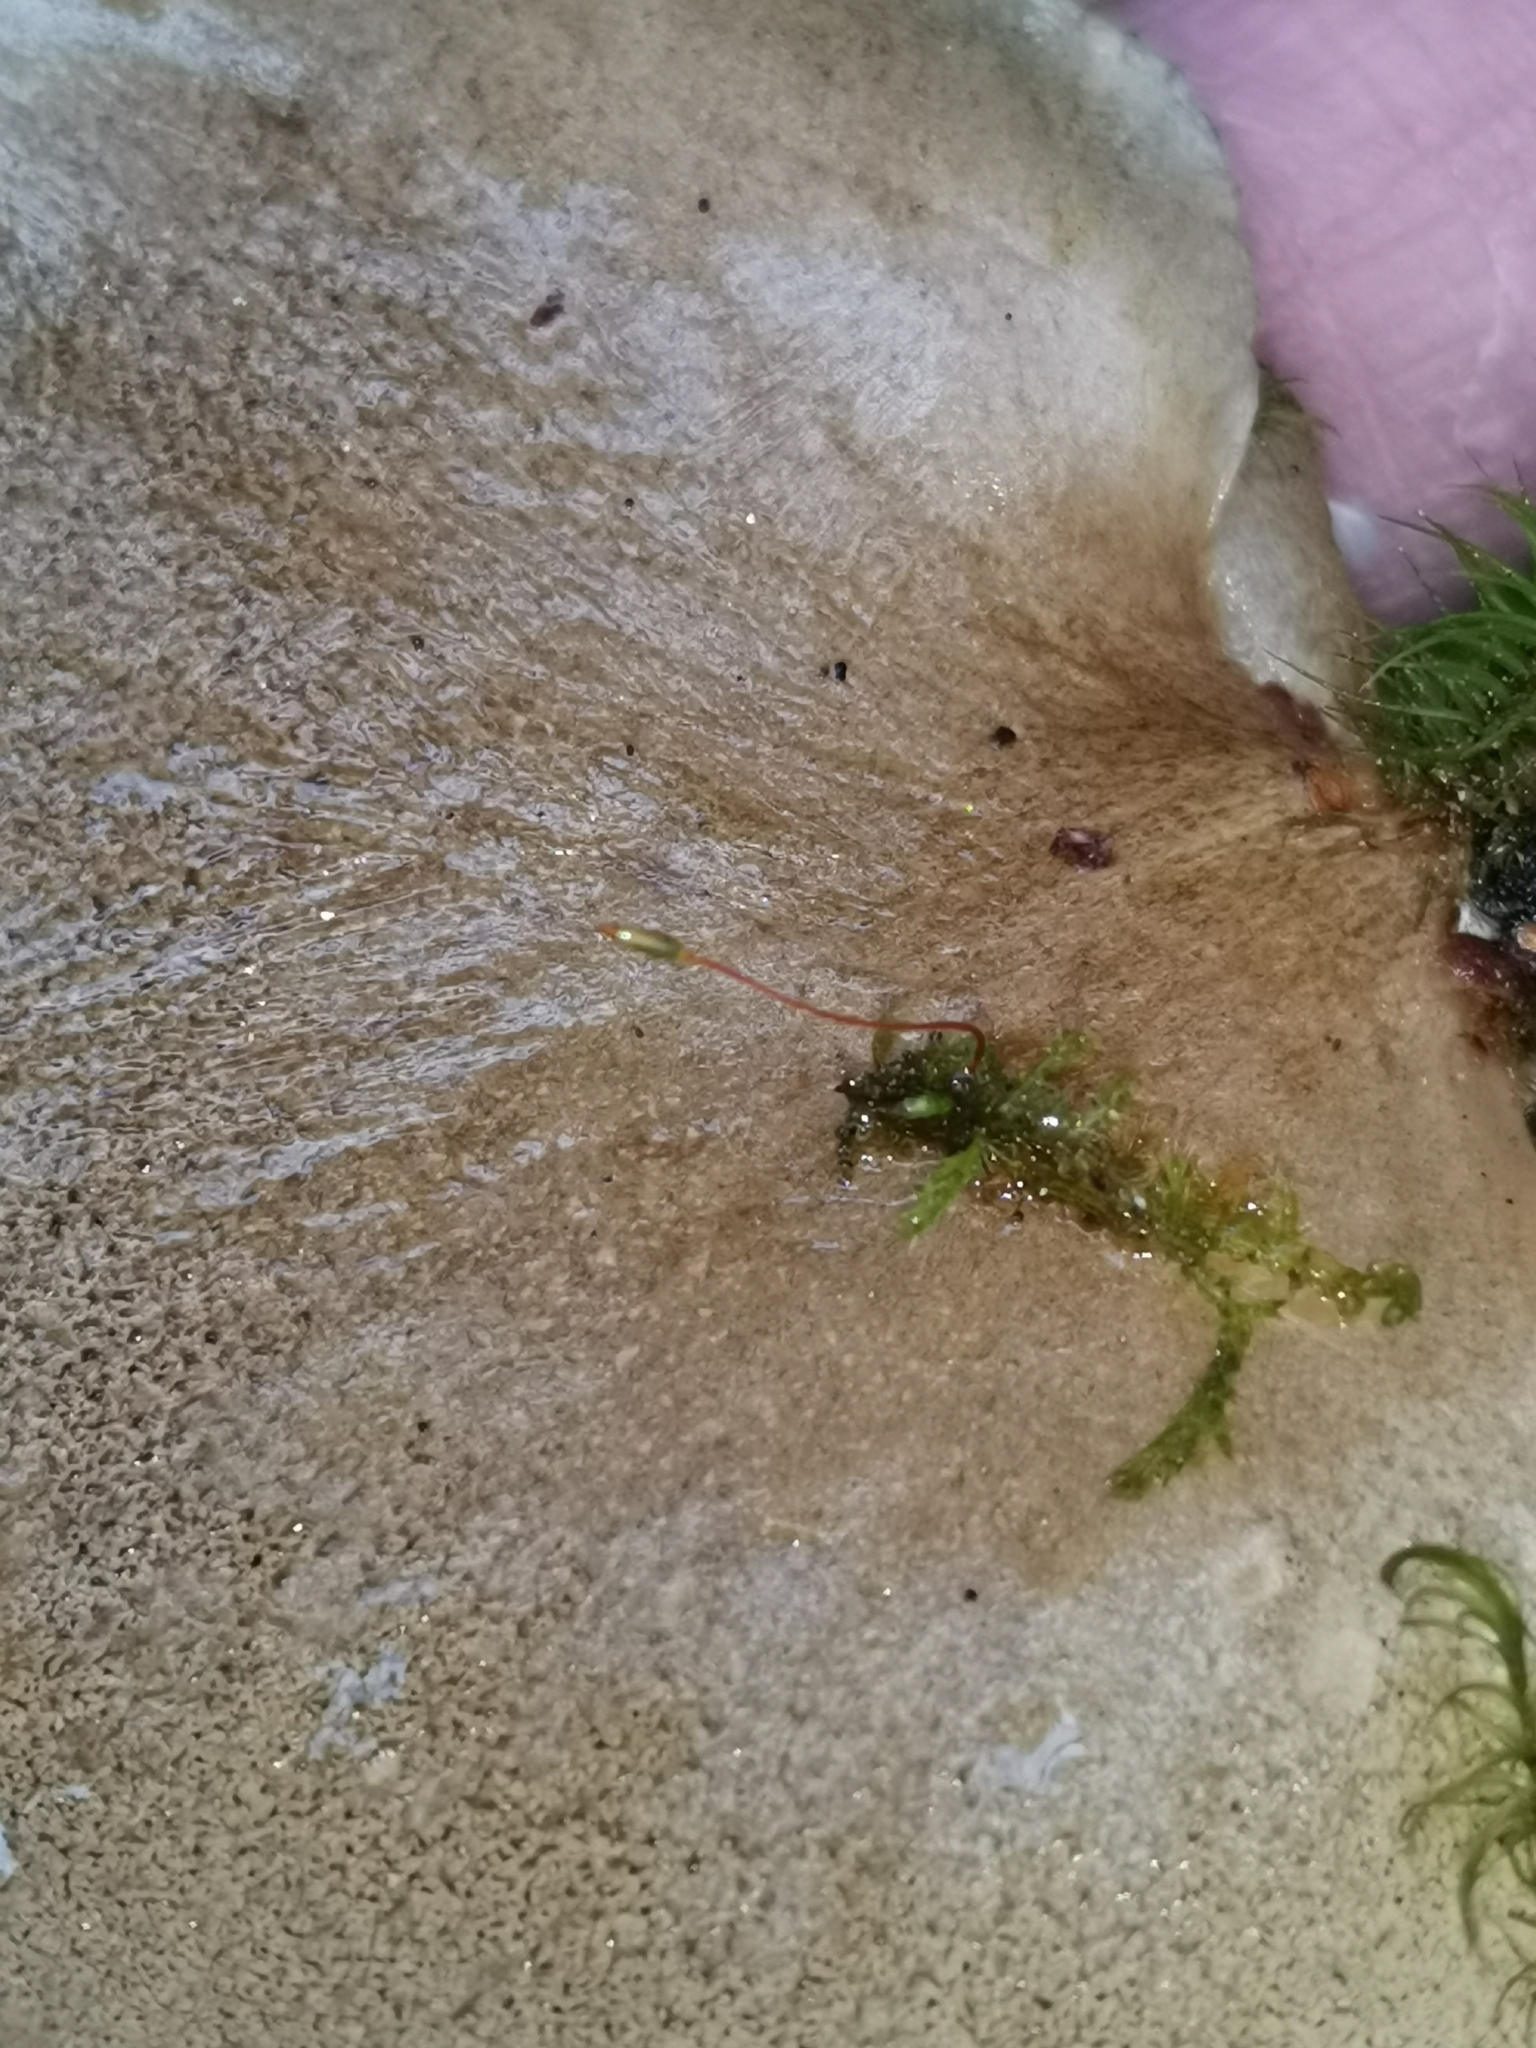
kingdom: Fungi
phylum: Basidiomycota
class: Agaricomycetes
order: Agaricales
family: Sarcomyxaceae
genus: Sarcomyxa
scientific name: Sarcomyxa serotina
